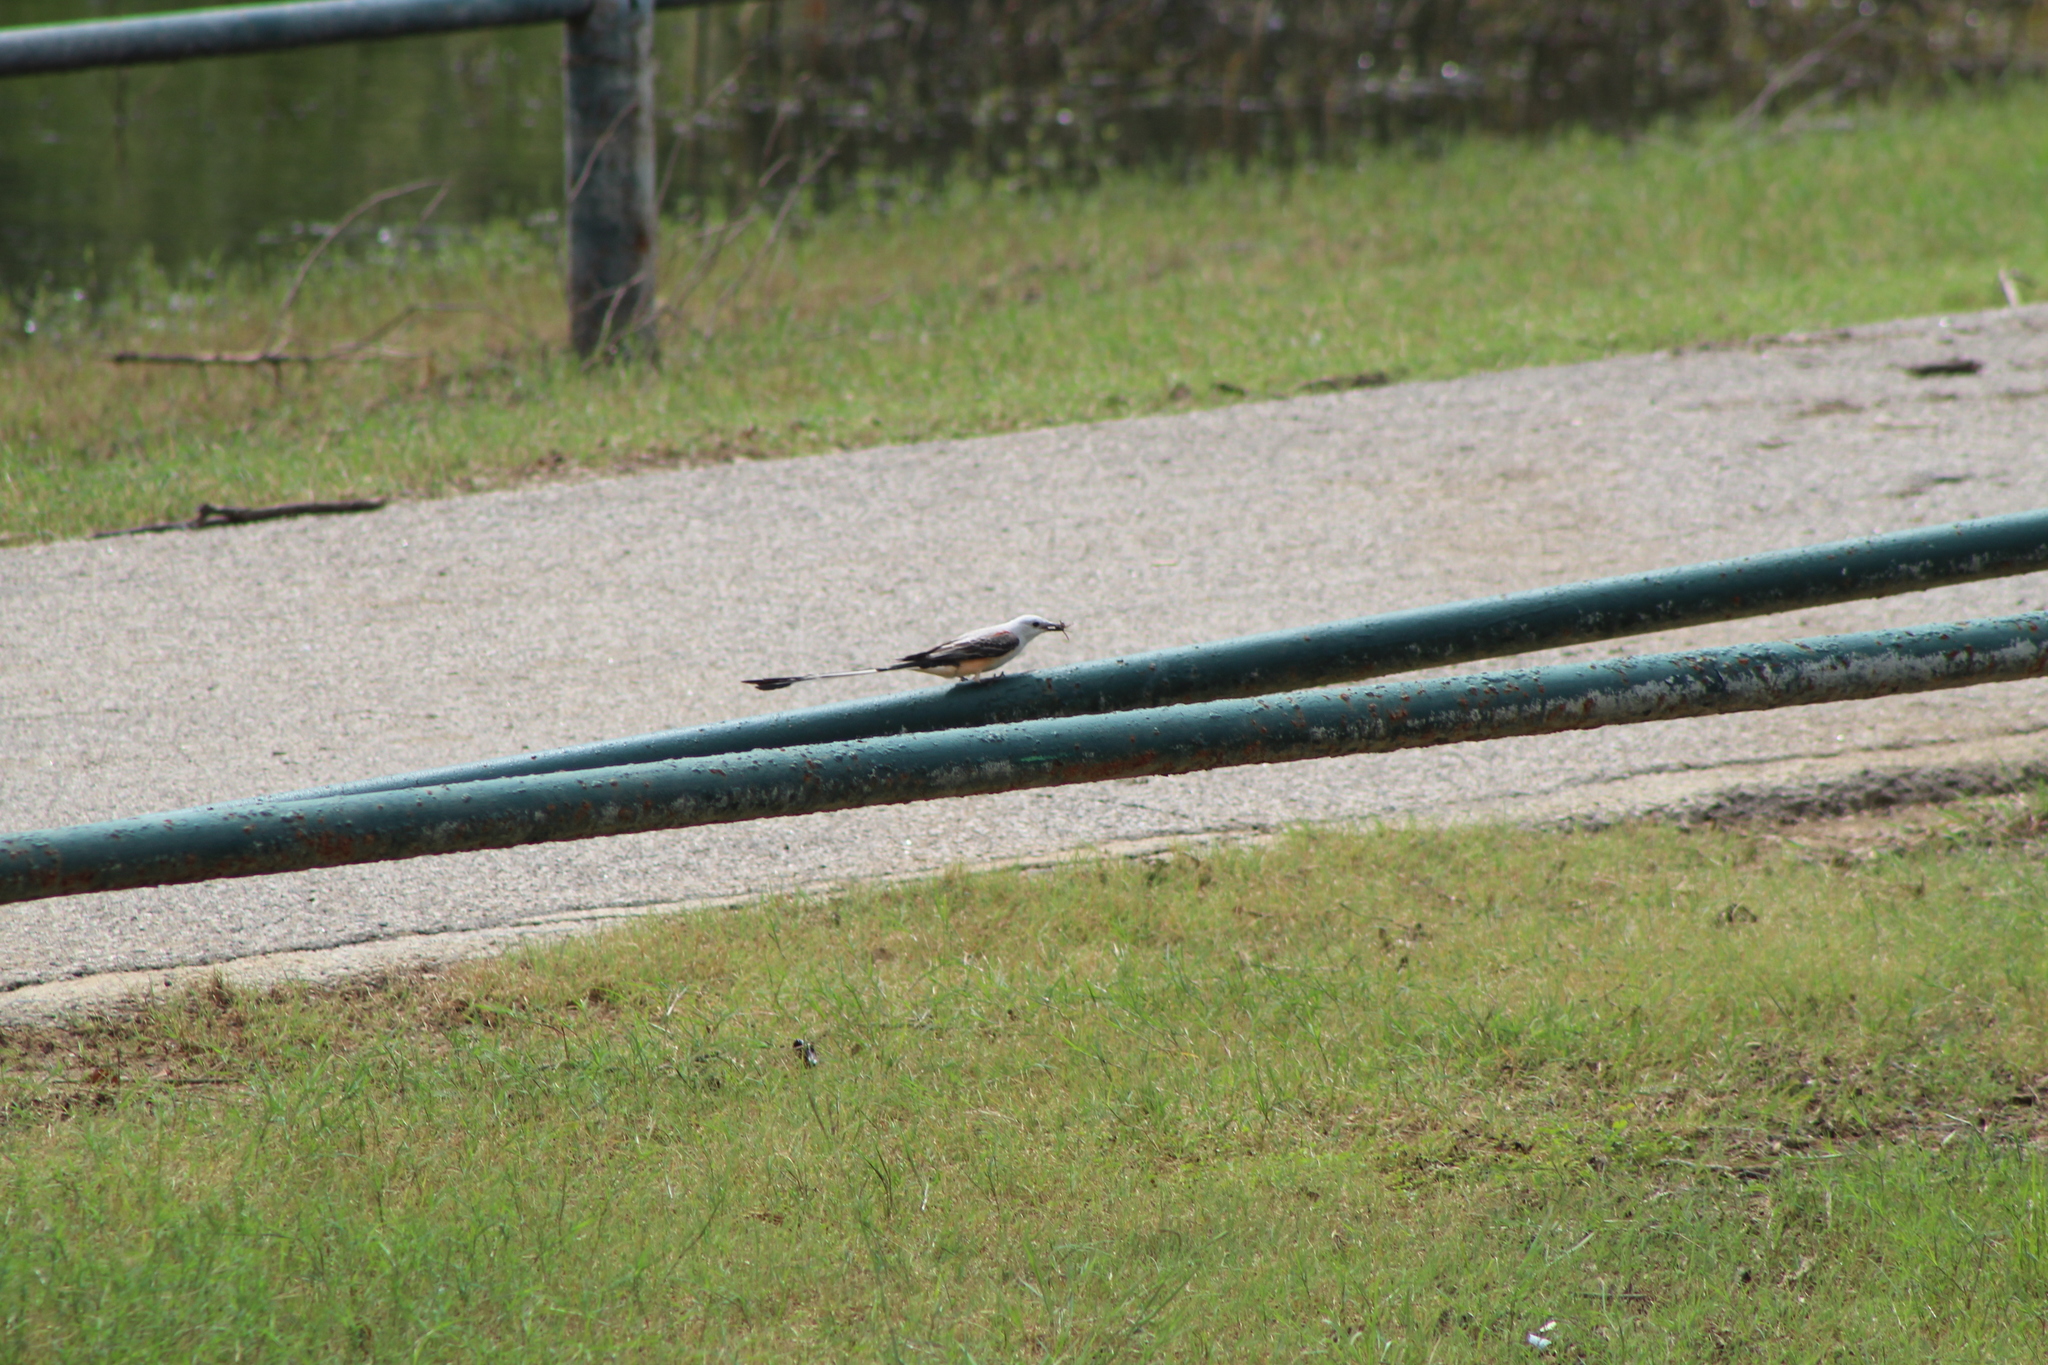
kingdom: Animalia
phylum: Chordata
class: Aves
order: Passeriformes
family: Tyrannidae
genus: Tyrannus
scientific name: Tyrannus forficatus
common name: Scissor-tailed flycatcher
